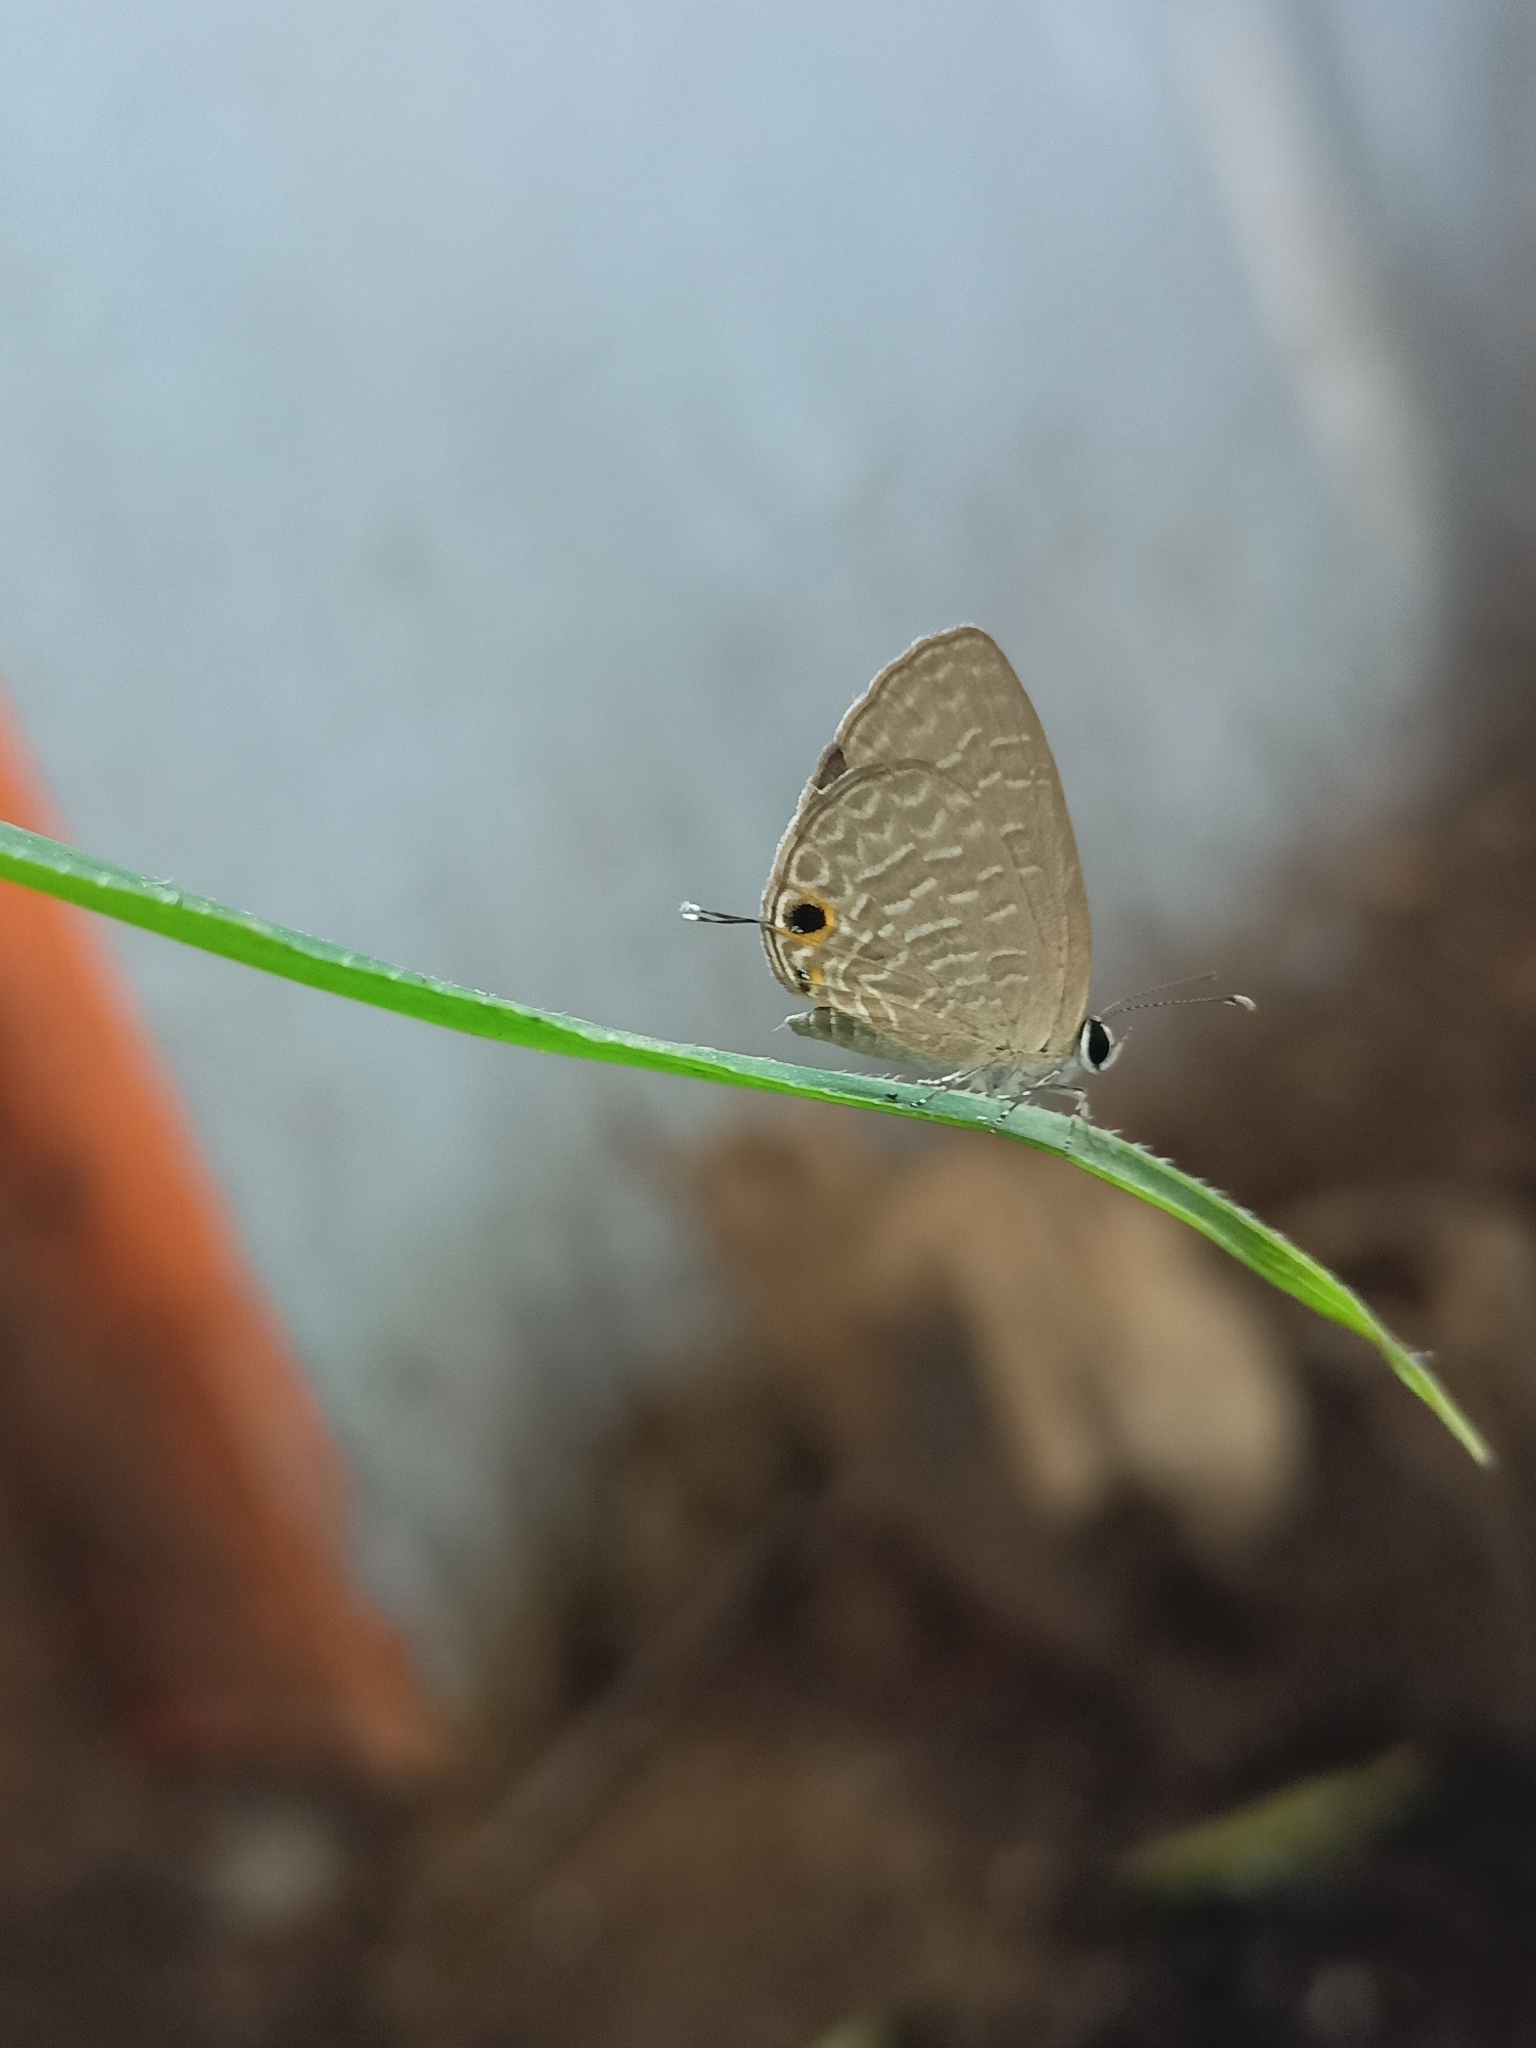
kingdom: Animalia
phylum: Arthropoda
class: Insecta
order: Lepidoptera
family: Lycaenidae
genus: Jamides
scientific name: Jamides bochus
